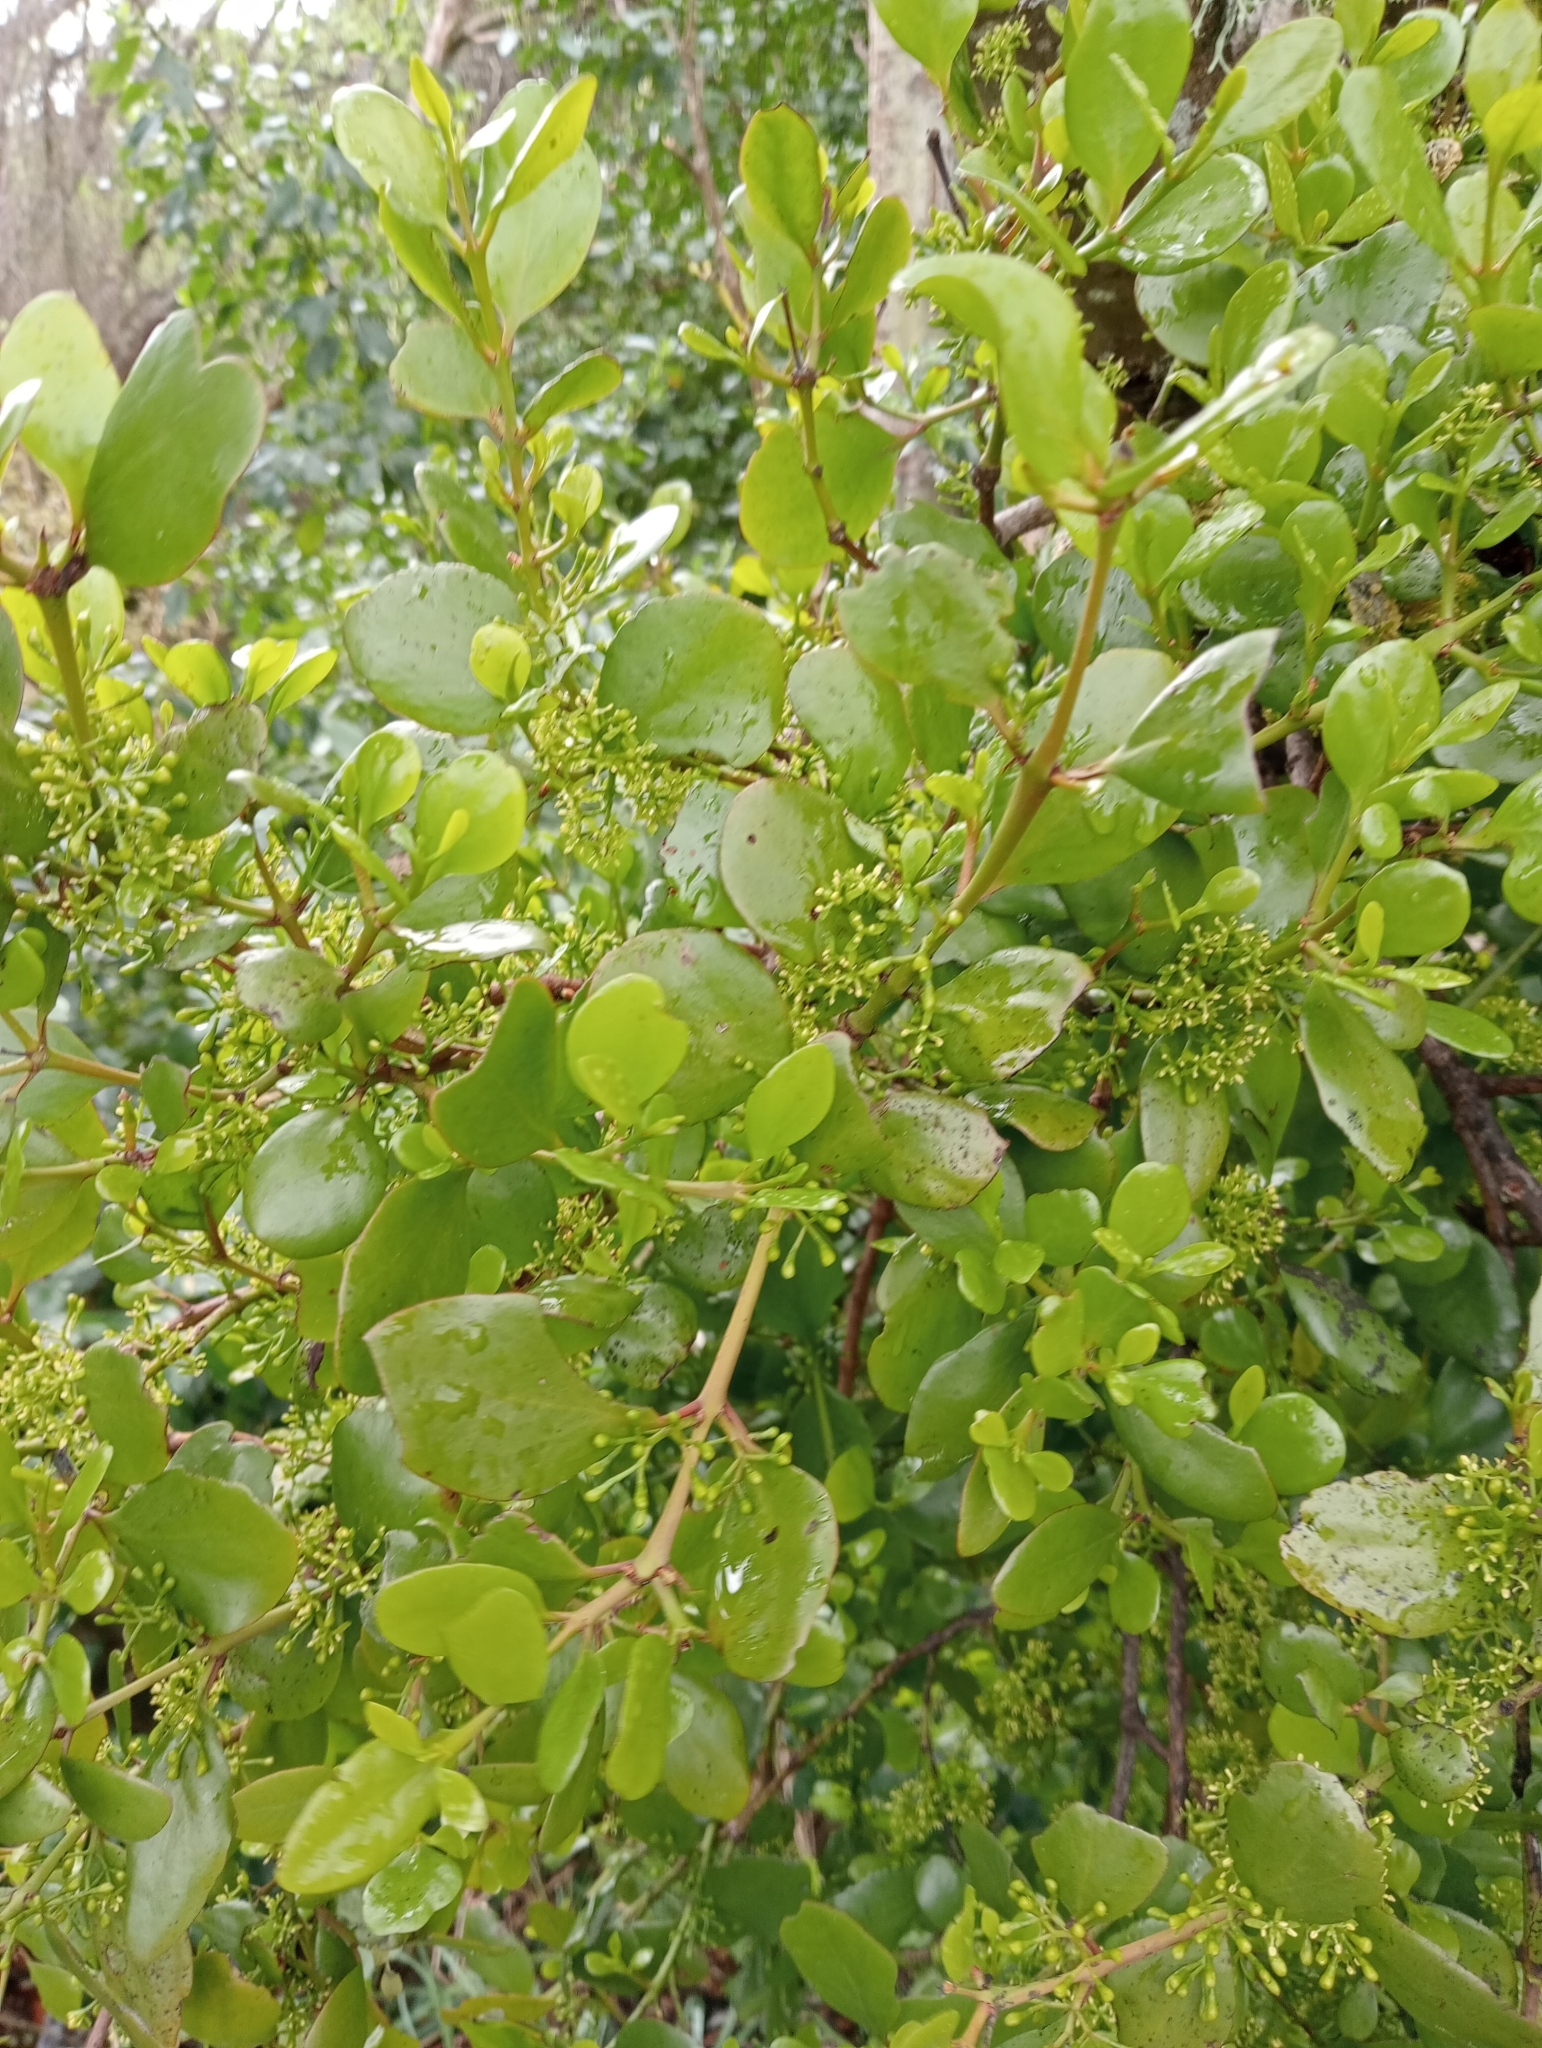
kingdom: Plantae
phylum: Tracheophyta
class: Magnoliopsida
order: Santalales
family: Loranthaceae
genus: Ileostylus
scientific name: Ileostylus micranthus
